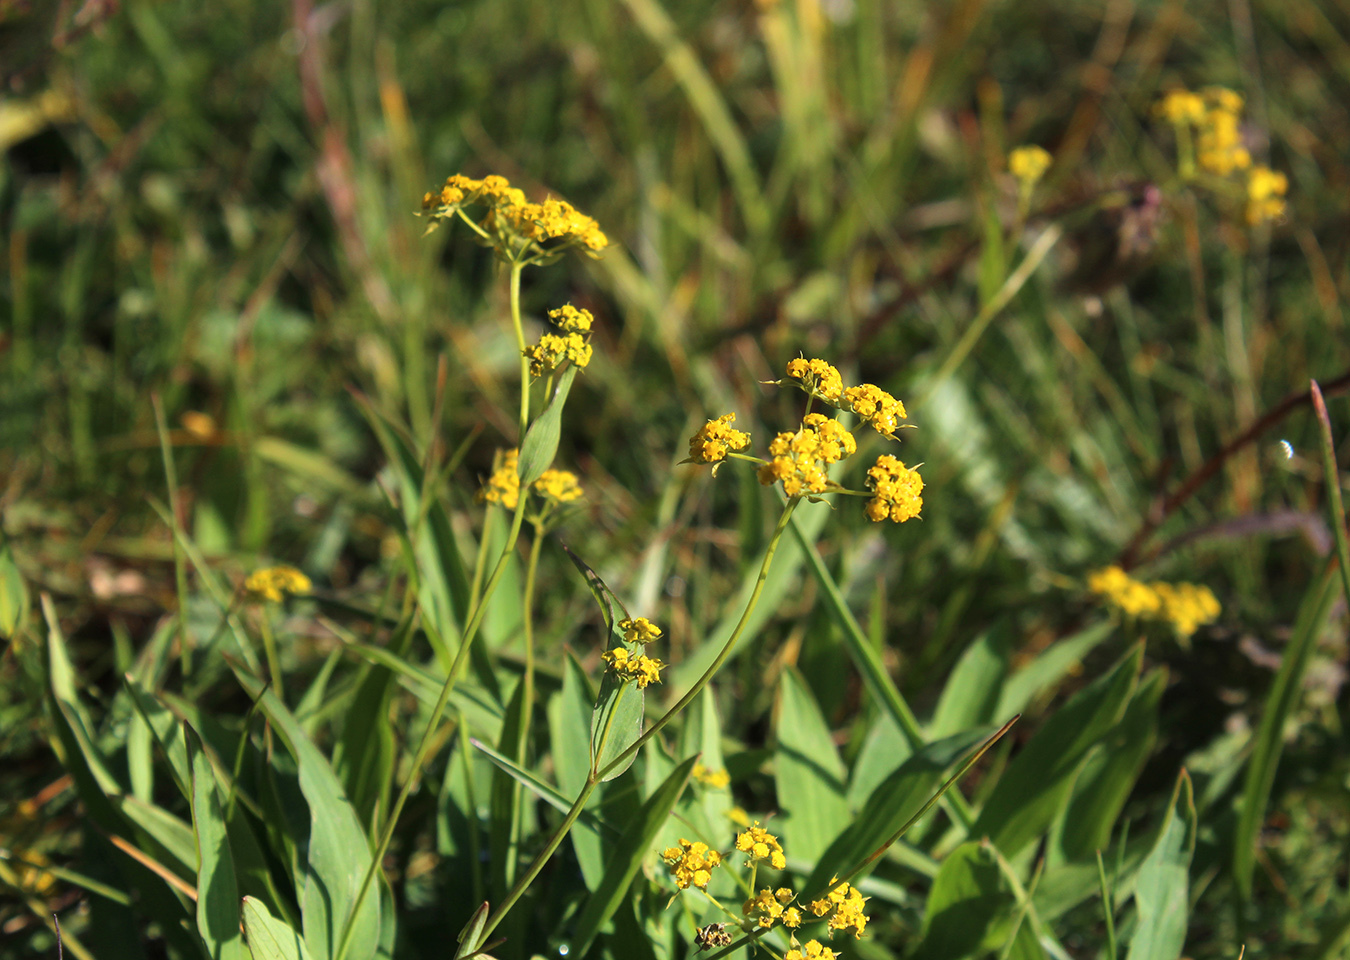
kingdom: Plantae
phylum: Tracheophyta
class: Magnoliopsida
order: Apiales
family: Apiaceae
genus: Bupleurum
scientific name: Bupleurum nordmannianum
